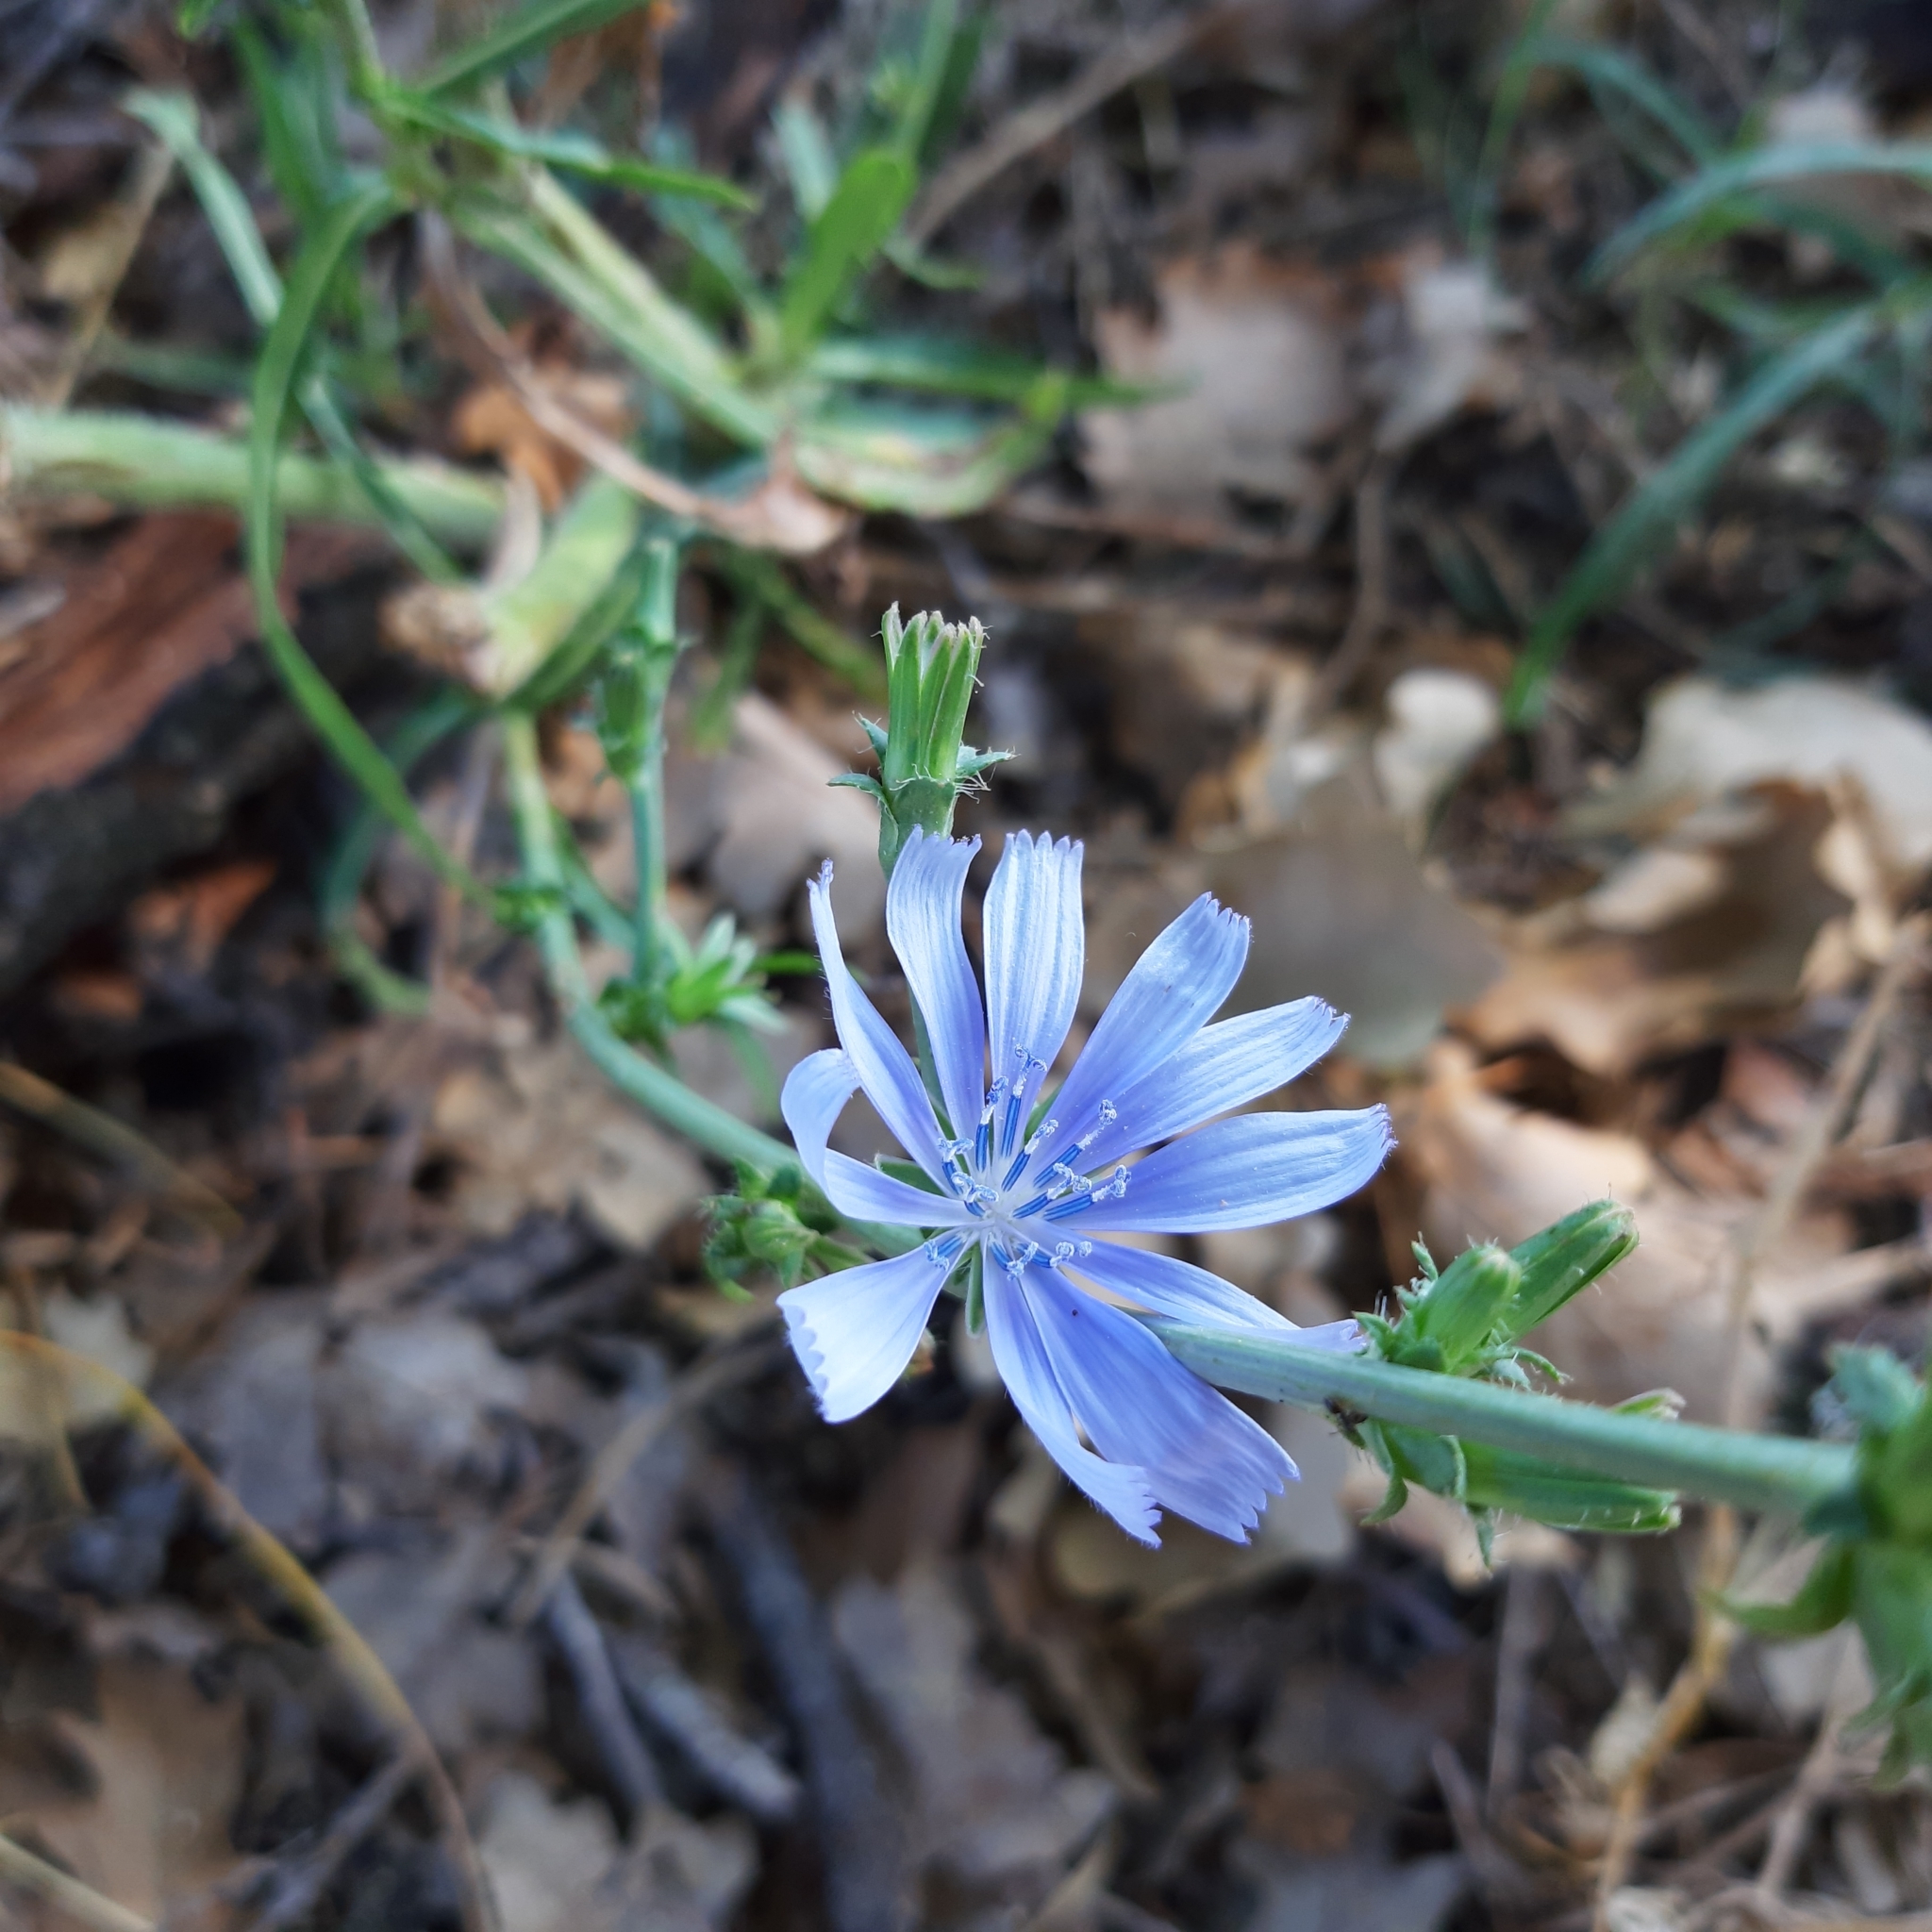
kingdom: Plantae
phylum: Tracheophyta
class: Magnoliopsida
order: Asterales
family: Asteraceae
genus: Cichorium
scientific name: Cichorium intybus
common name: Chicory
